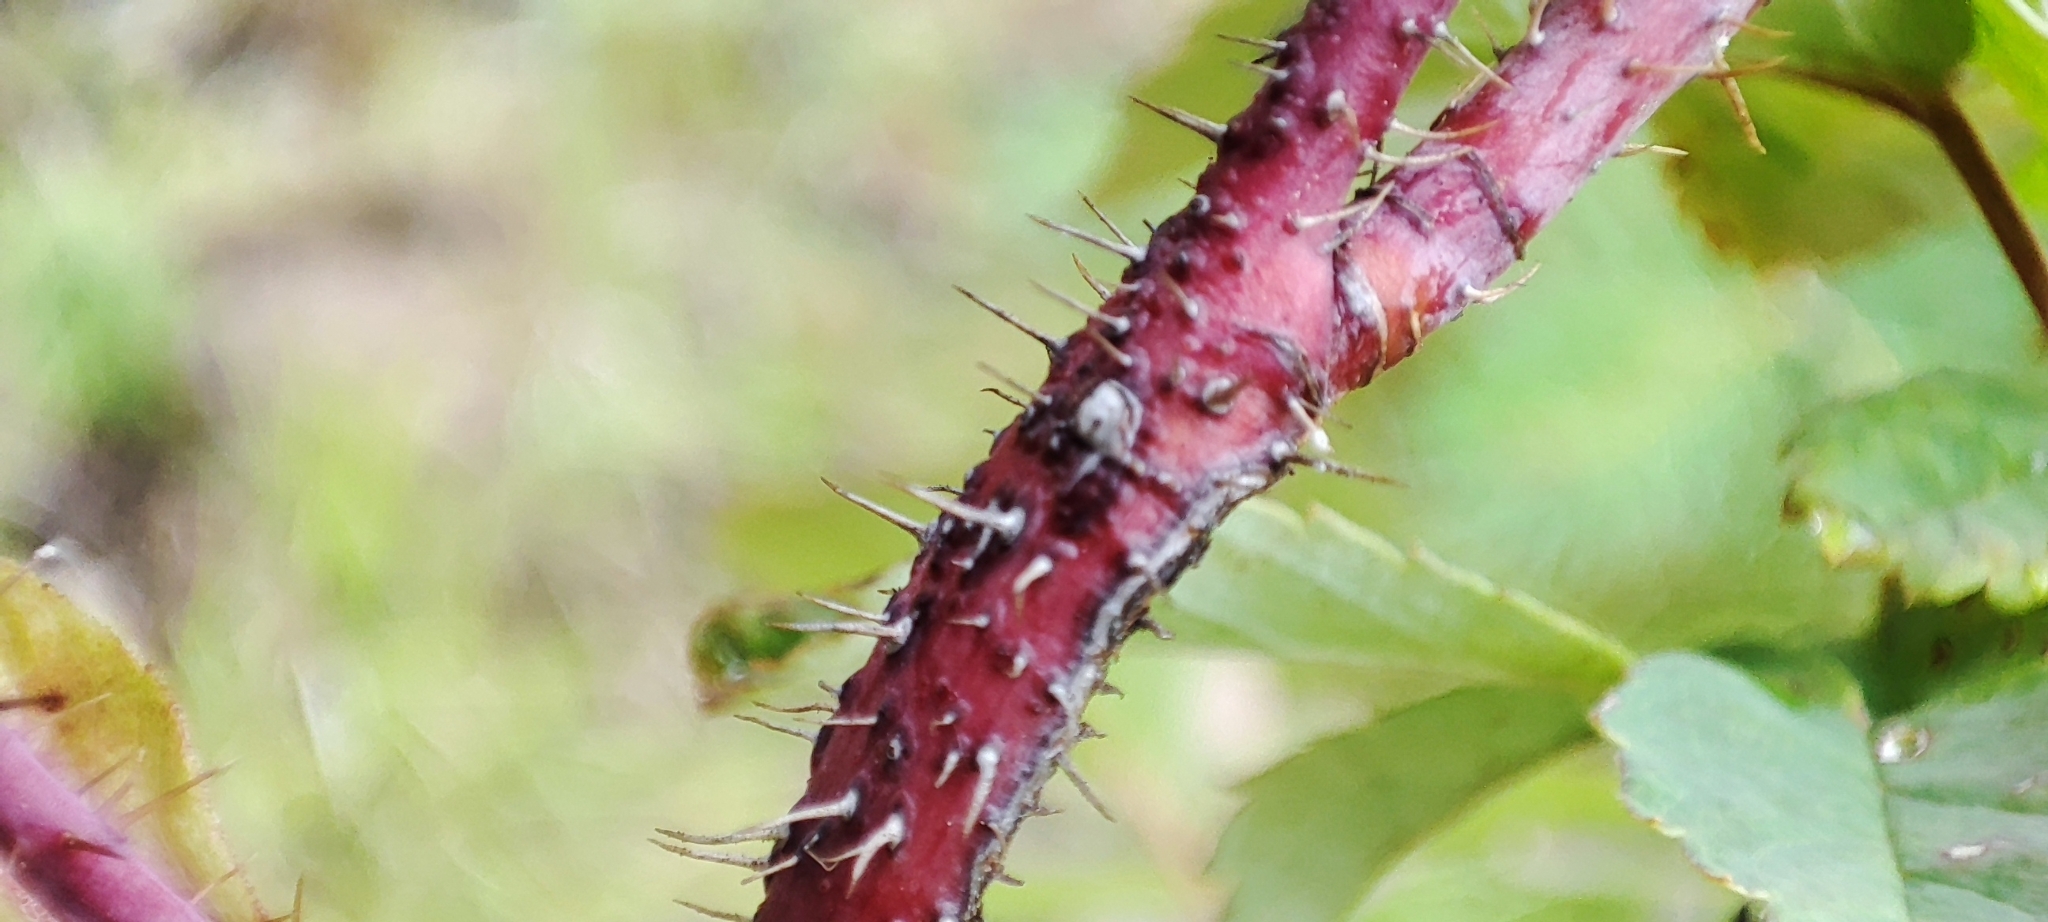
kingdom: Plantae
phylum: Tracheophyta
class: Magnoliopsida
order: Rosales
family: Rosaceae
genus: Rosa
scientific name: Rosa acicularis
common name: Prickly rose
